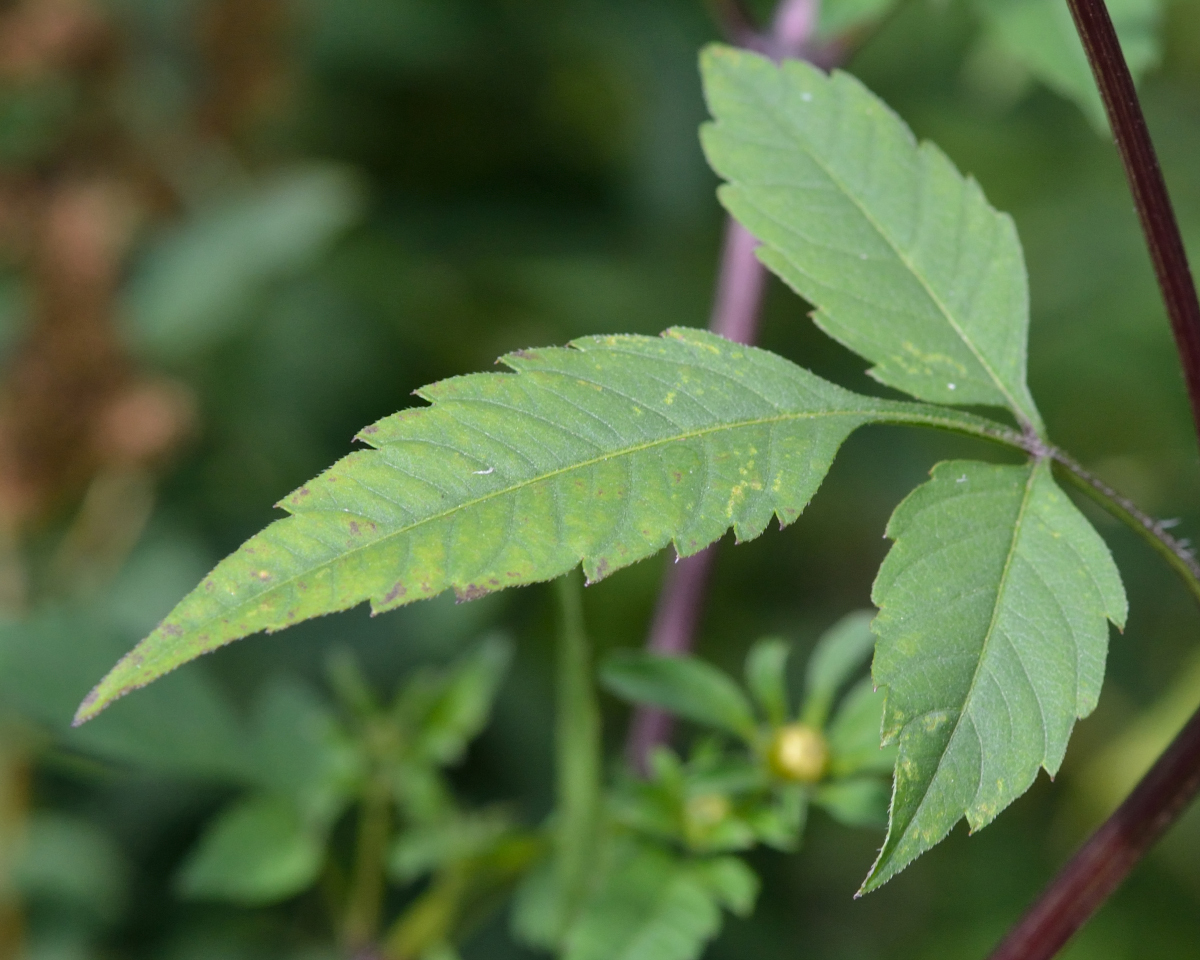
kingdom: Plantae
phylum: Tracheophyta
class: Magnoliopsida
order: Asterales
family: Asteraceae
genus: Bidens
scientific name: Bidens frondosa
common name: Beggarticks
